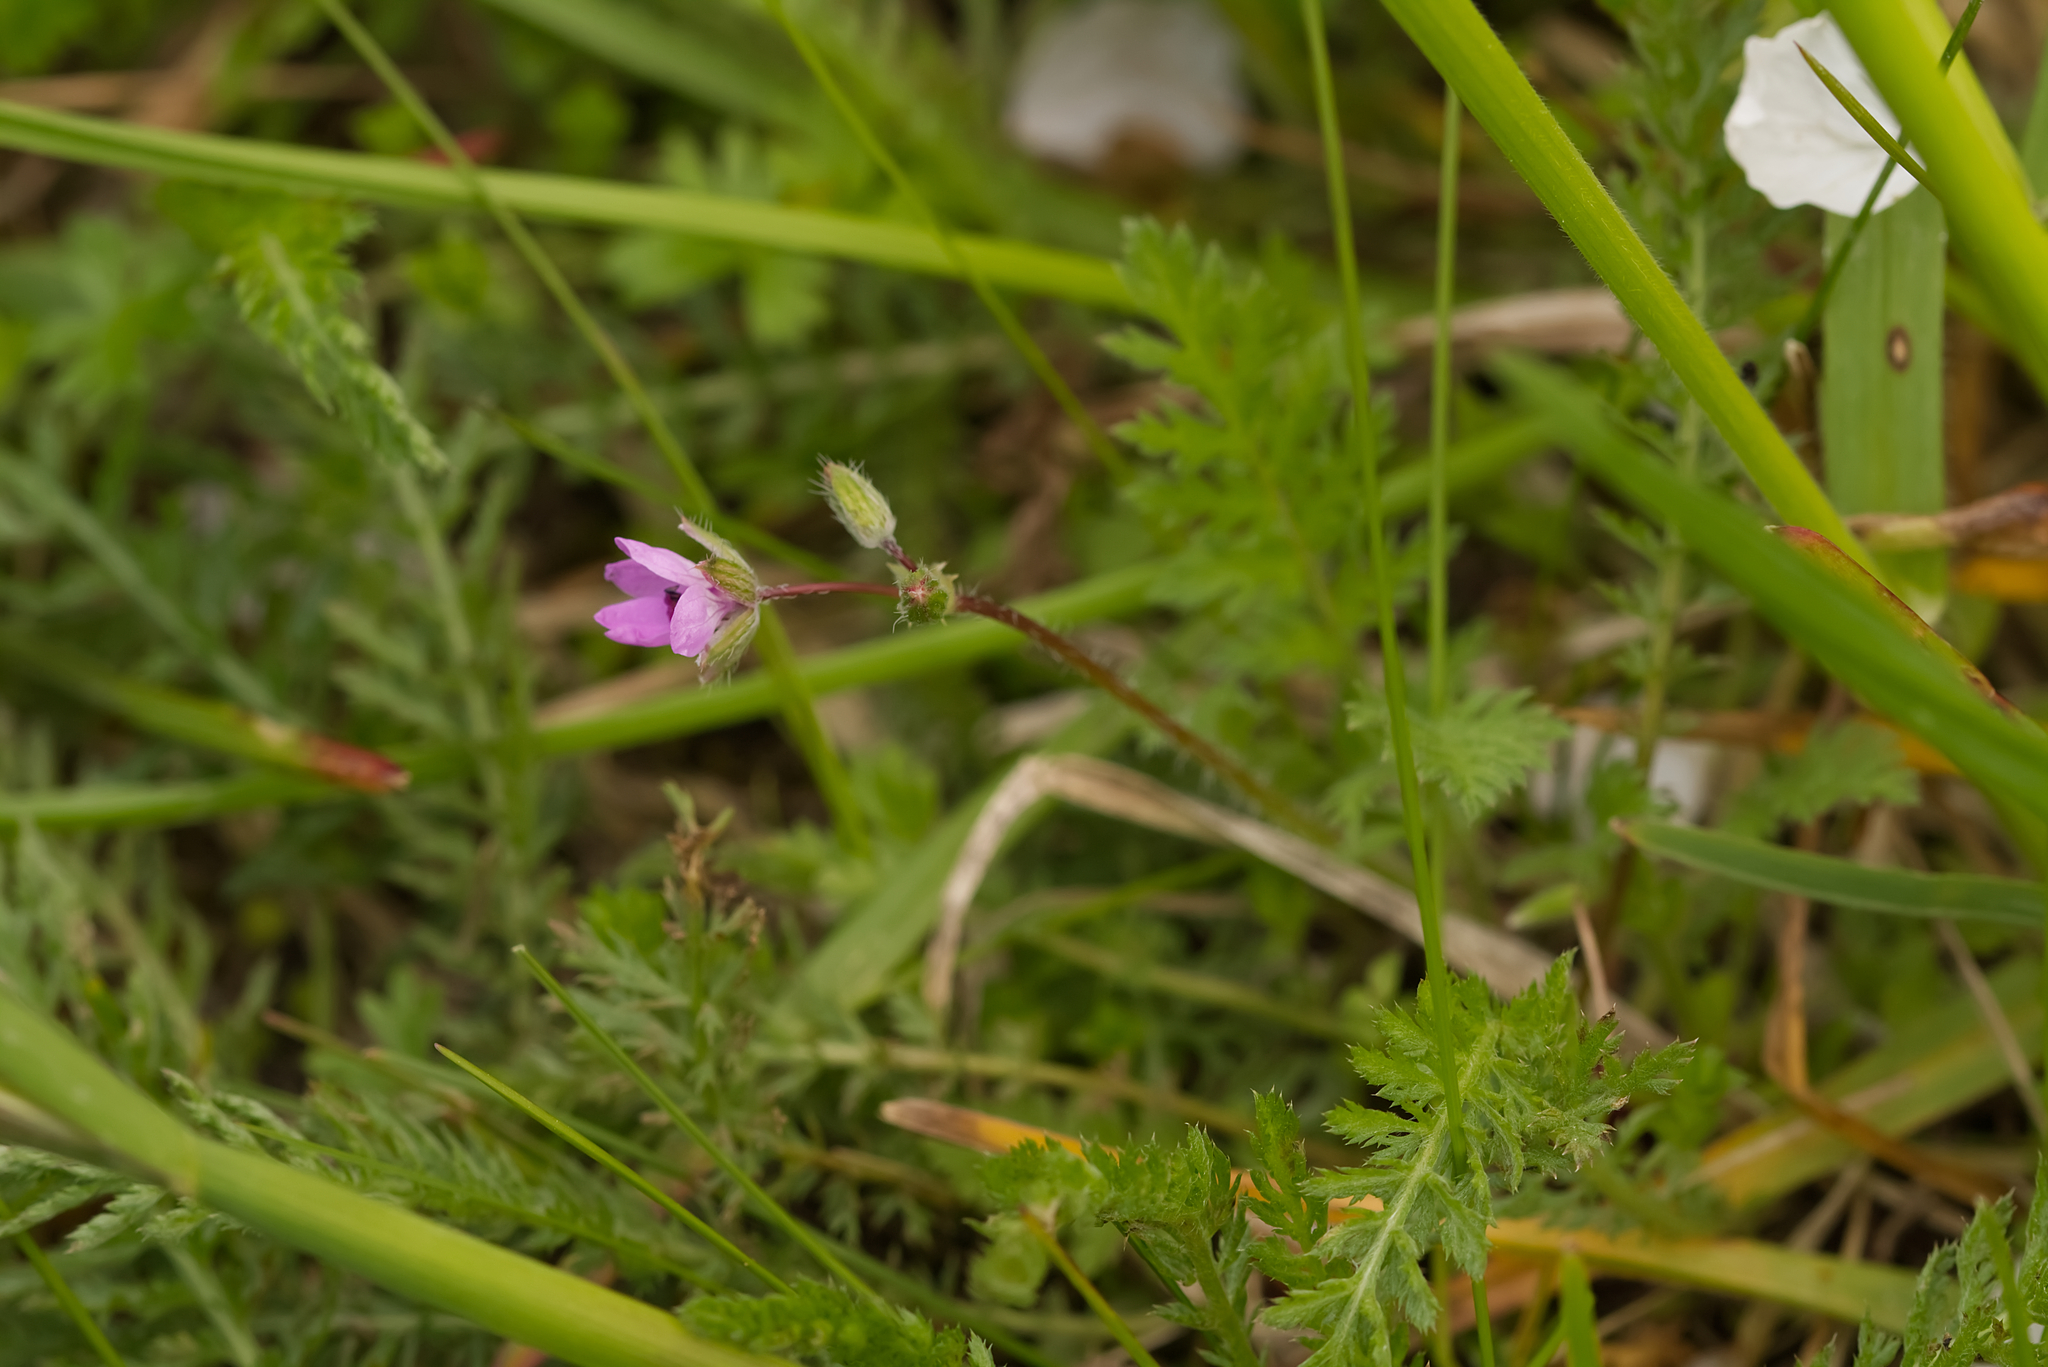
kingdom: Plantae
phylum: Tracheophyta
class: Magnoliopsida
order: Geraniales
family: Geraniaceae
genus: Erodium
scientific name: Erodium cicutarium
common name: Common stork's-bill
